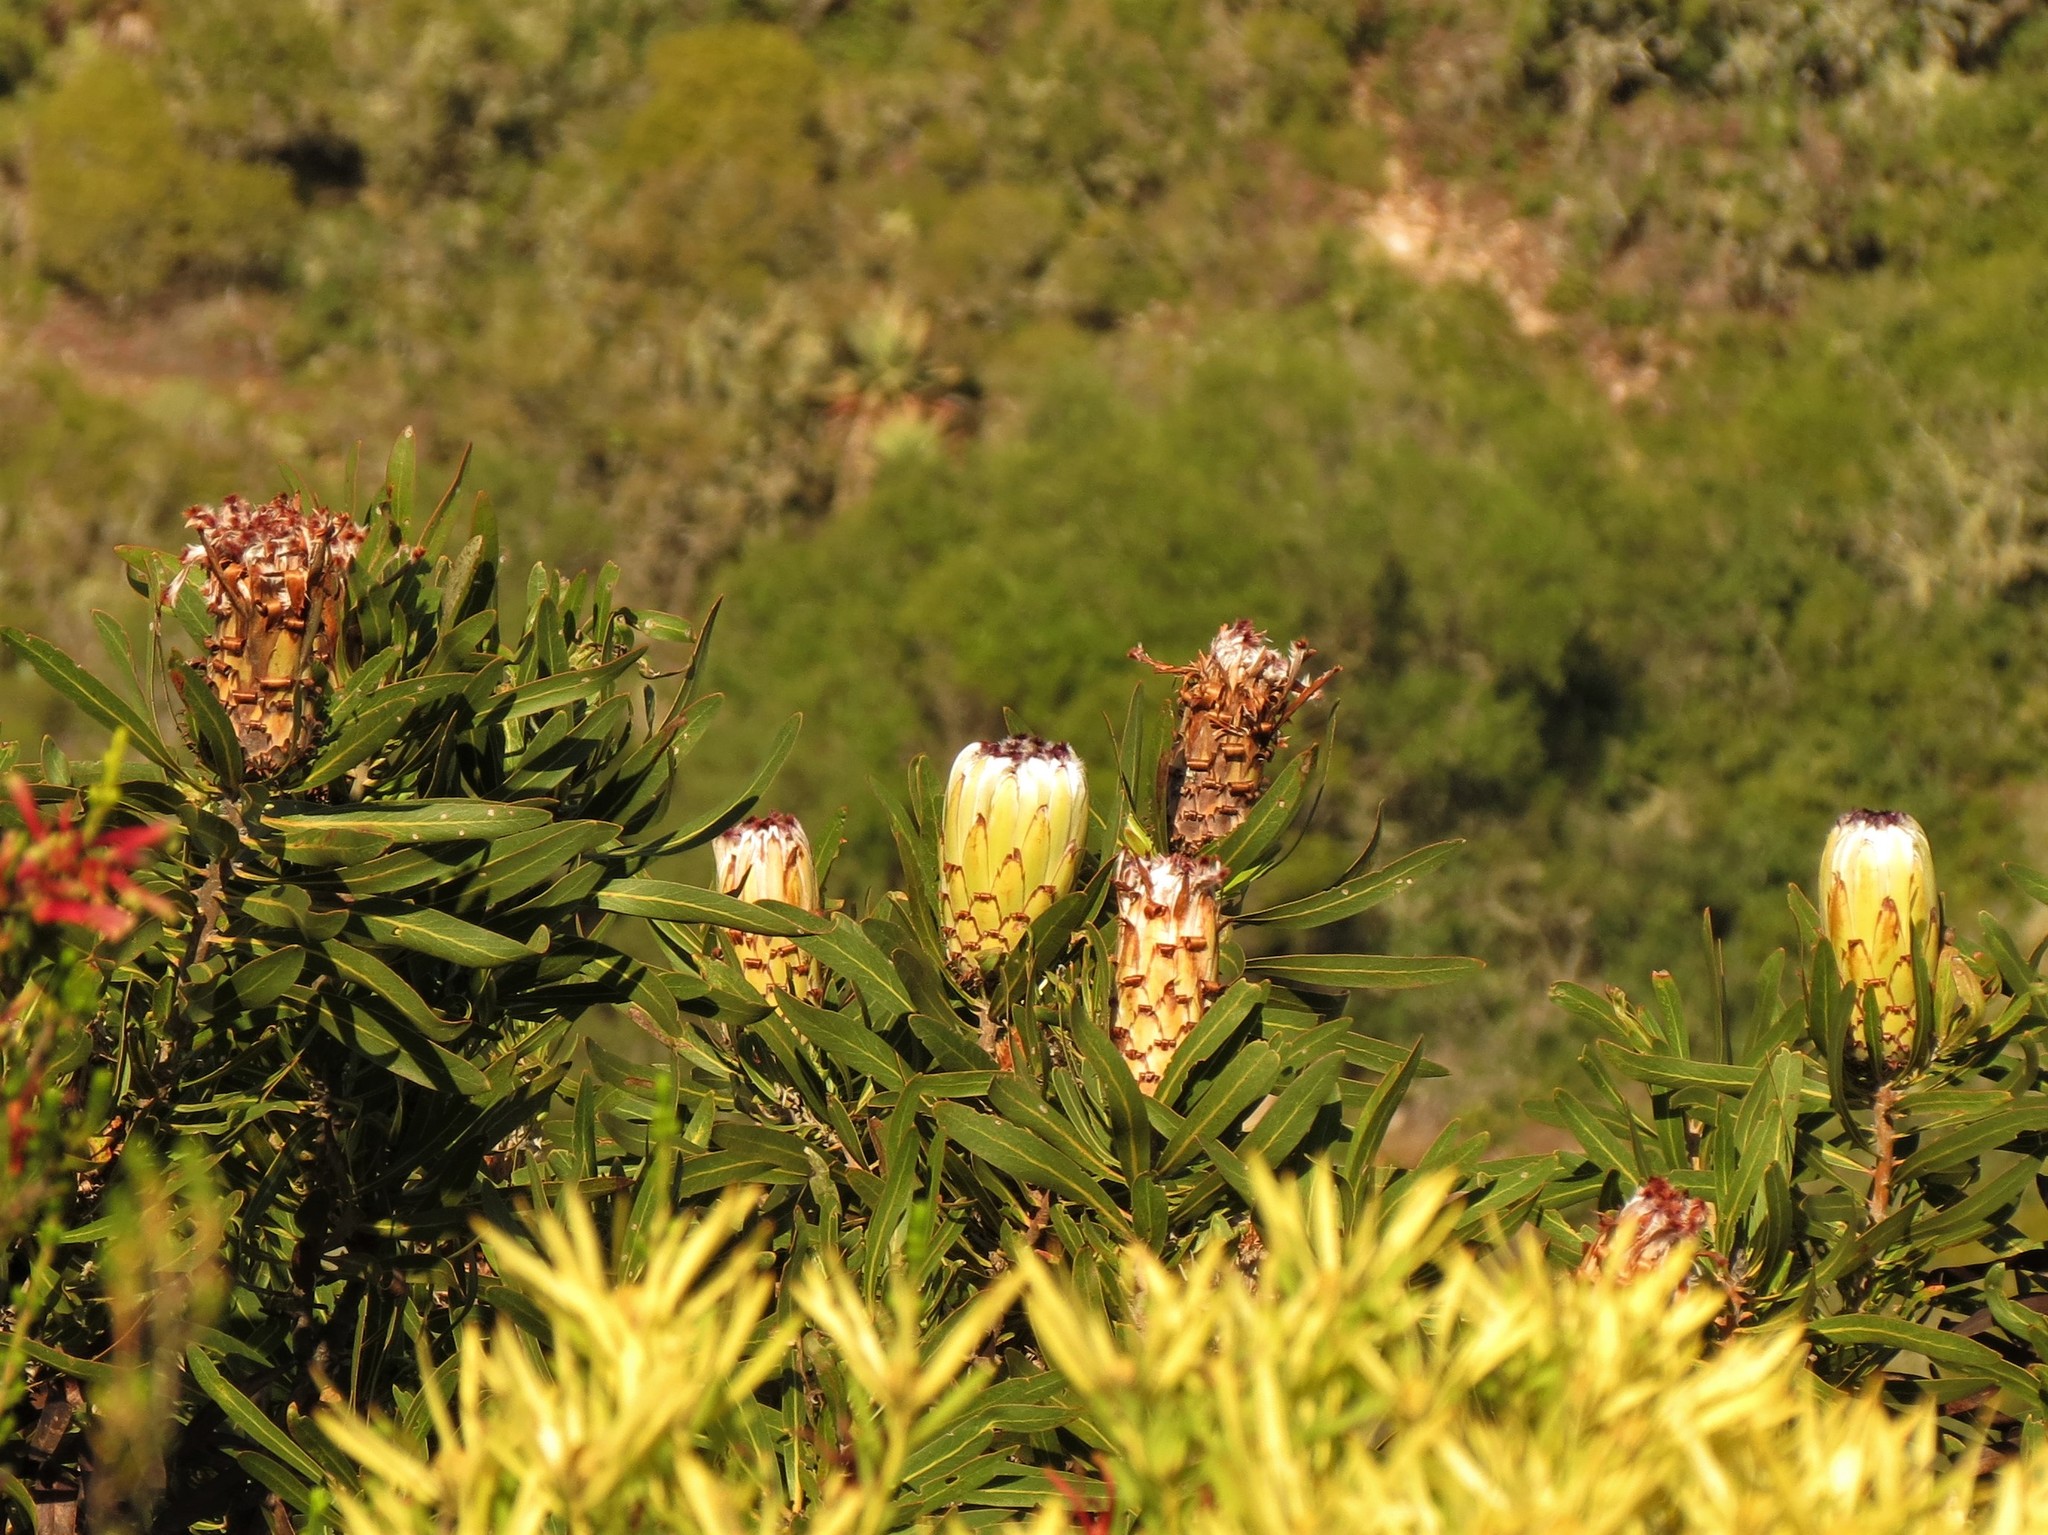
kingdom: Plantae
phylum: Tracheophyta
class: Magnoliopsida
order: Proteales
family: Proteaceae
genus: Protea
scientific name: Protea neriifolia
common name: Blue sugarbush
